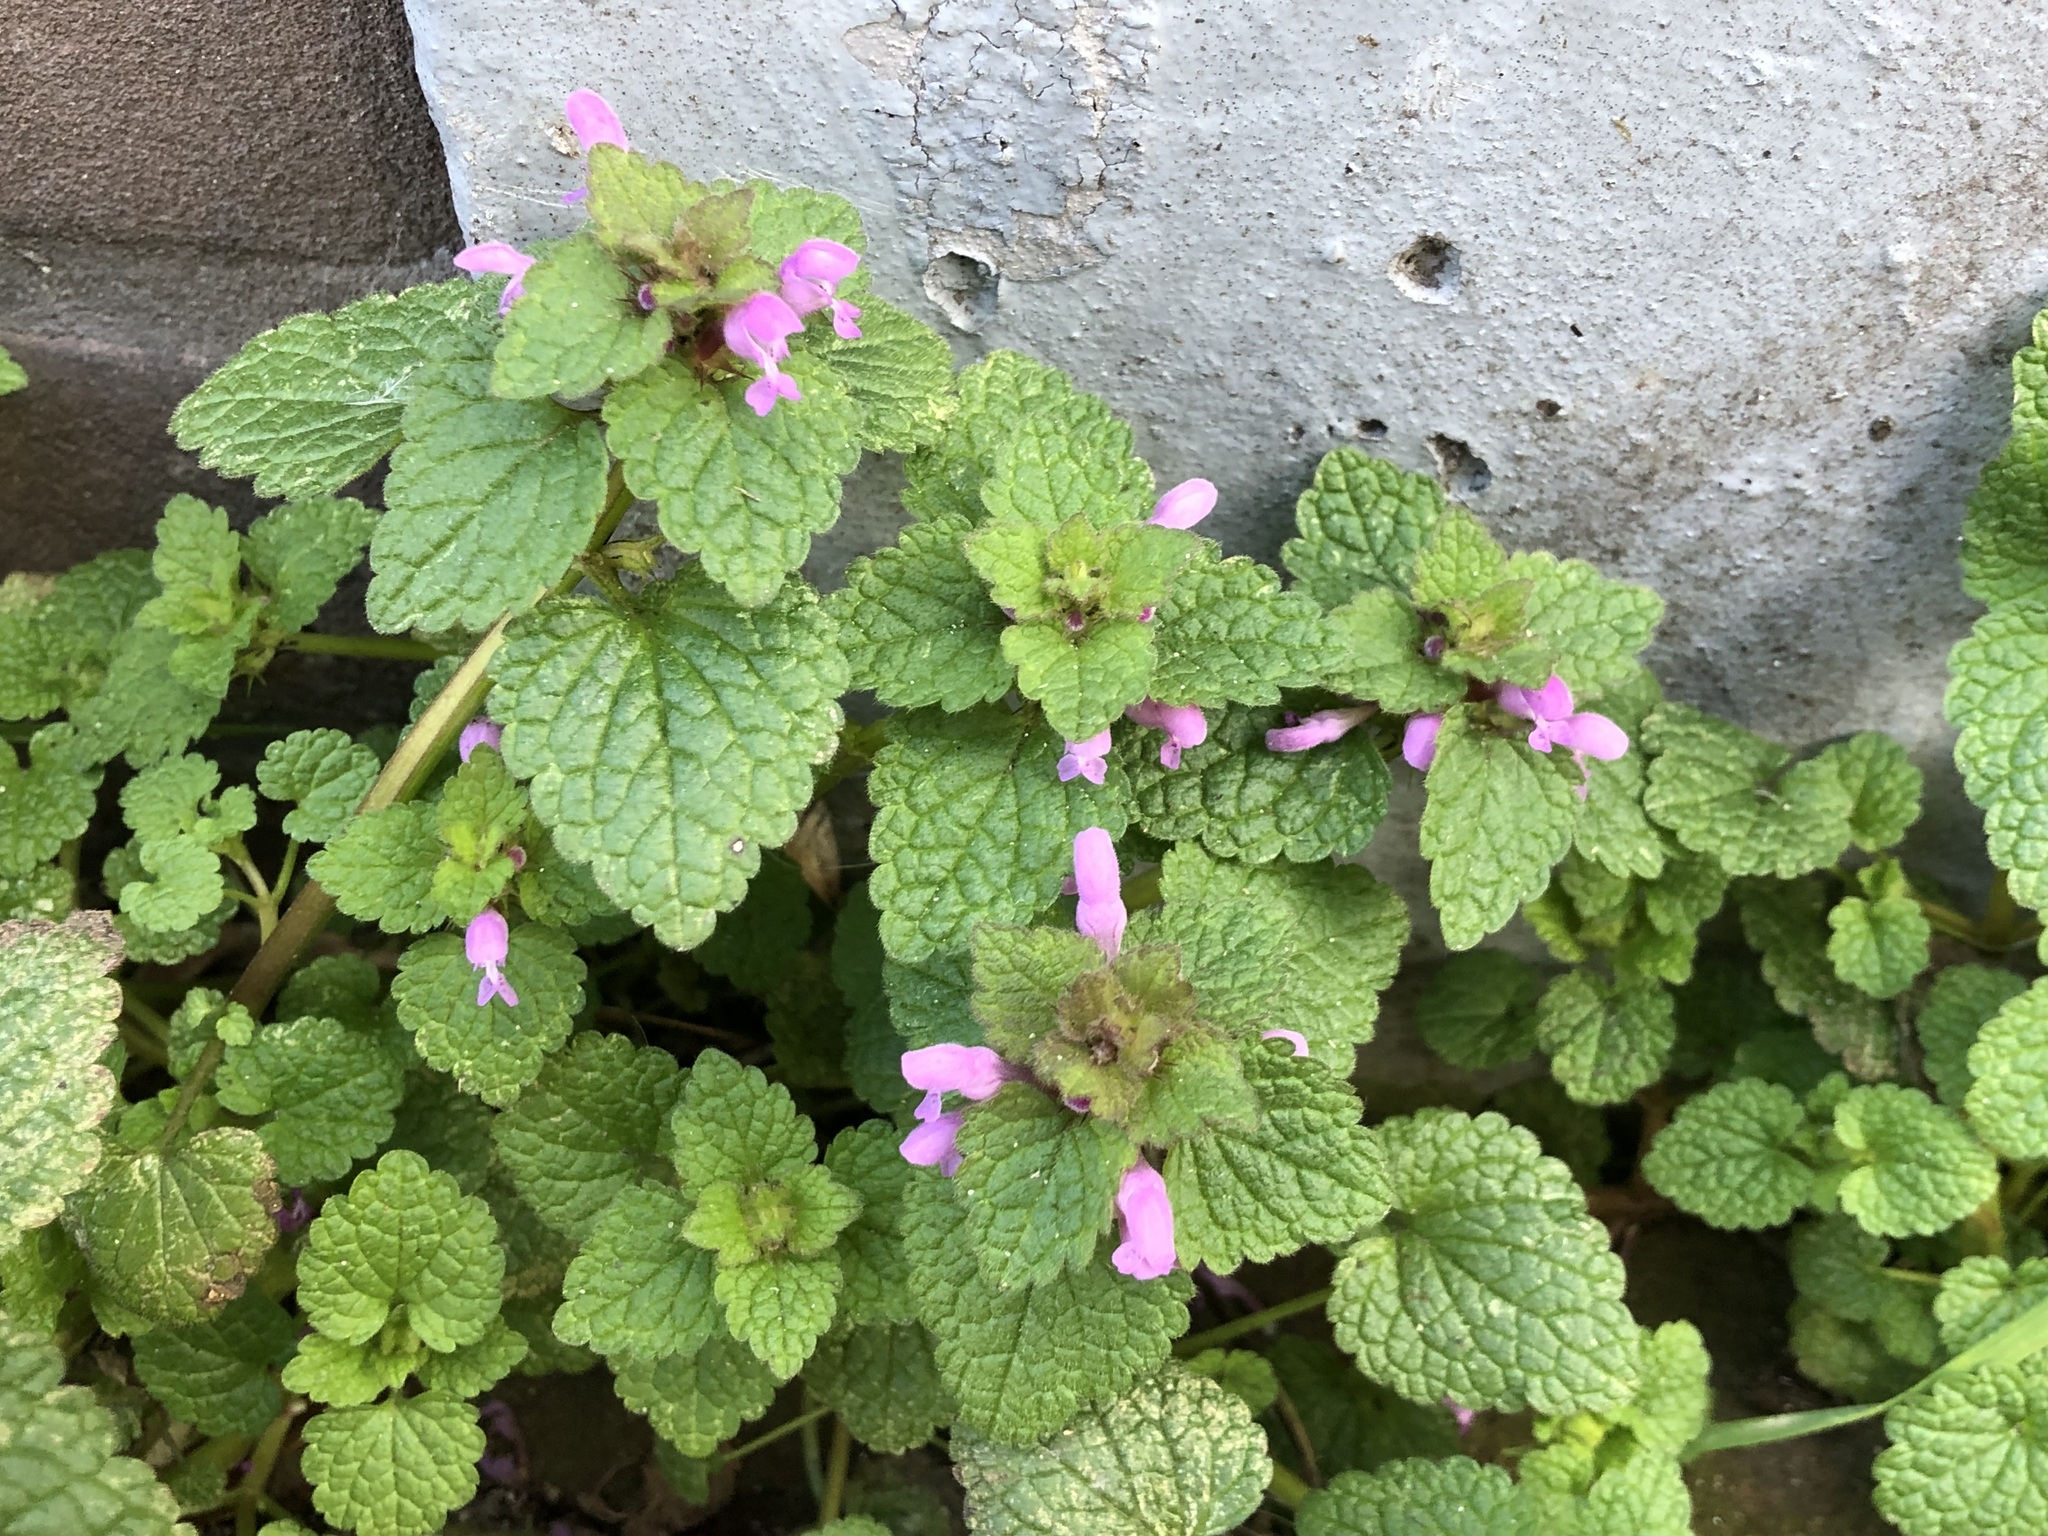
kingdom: Plantae
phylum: Tracheophyta
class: Magnoliopsida
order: Lamiales
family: Lamiaceae
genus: Lamium
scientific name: Lamium purpureum
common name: Red dead-nettle
